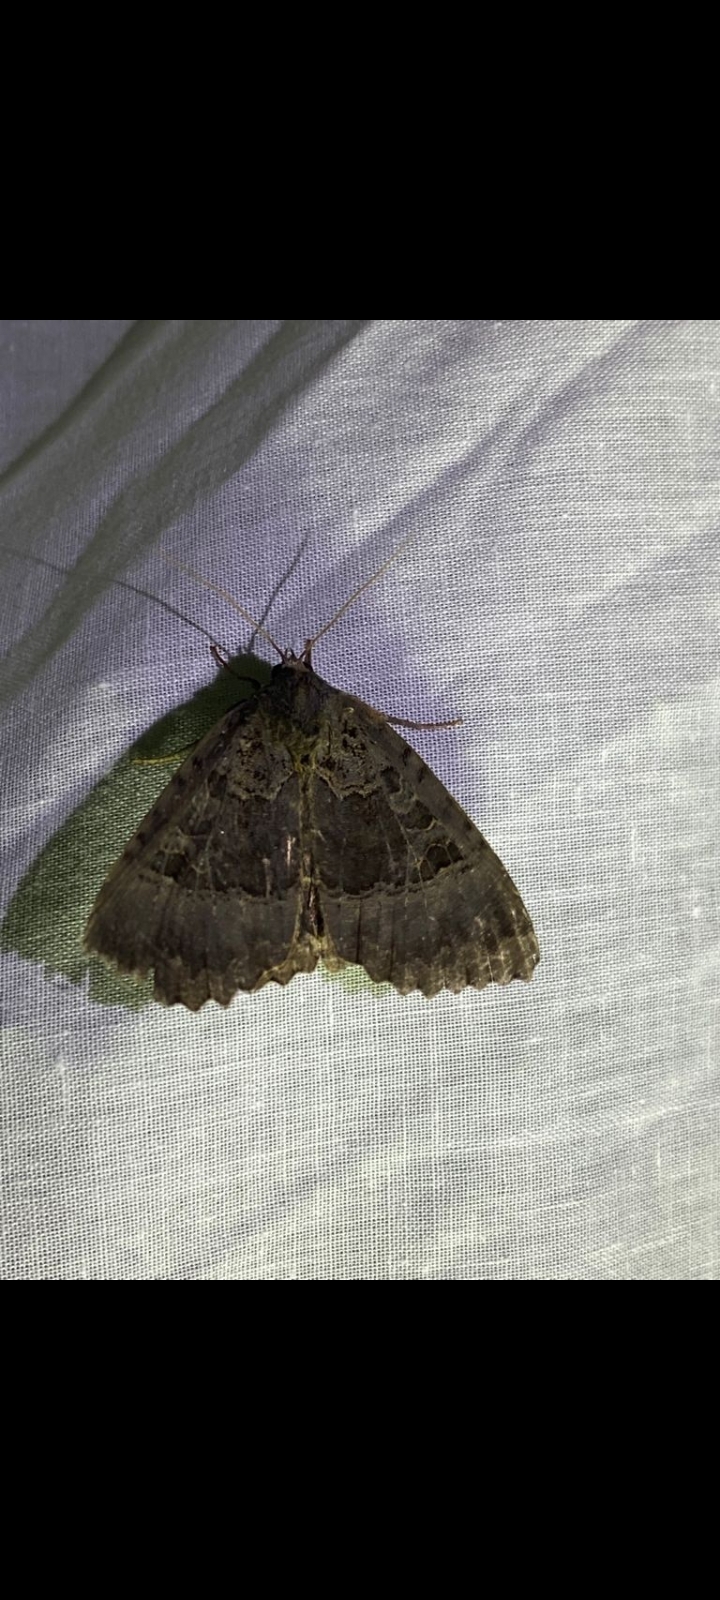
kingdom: Animalia
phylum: Arthropoda
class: Insecta
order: Lepidoptera
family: Noctuidae
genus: Mormo
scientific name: Mormo maura
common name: Old lady
